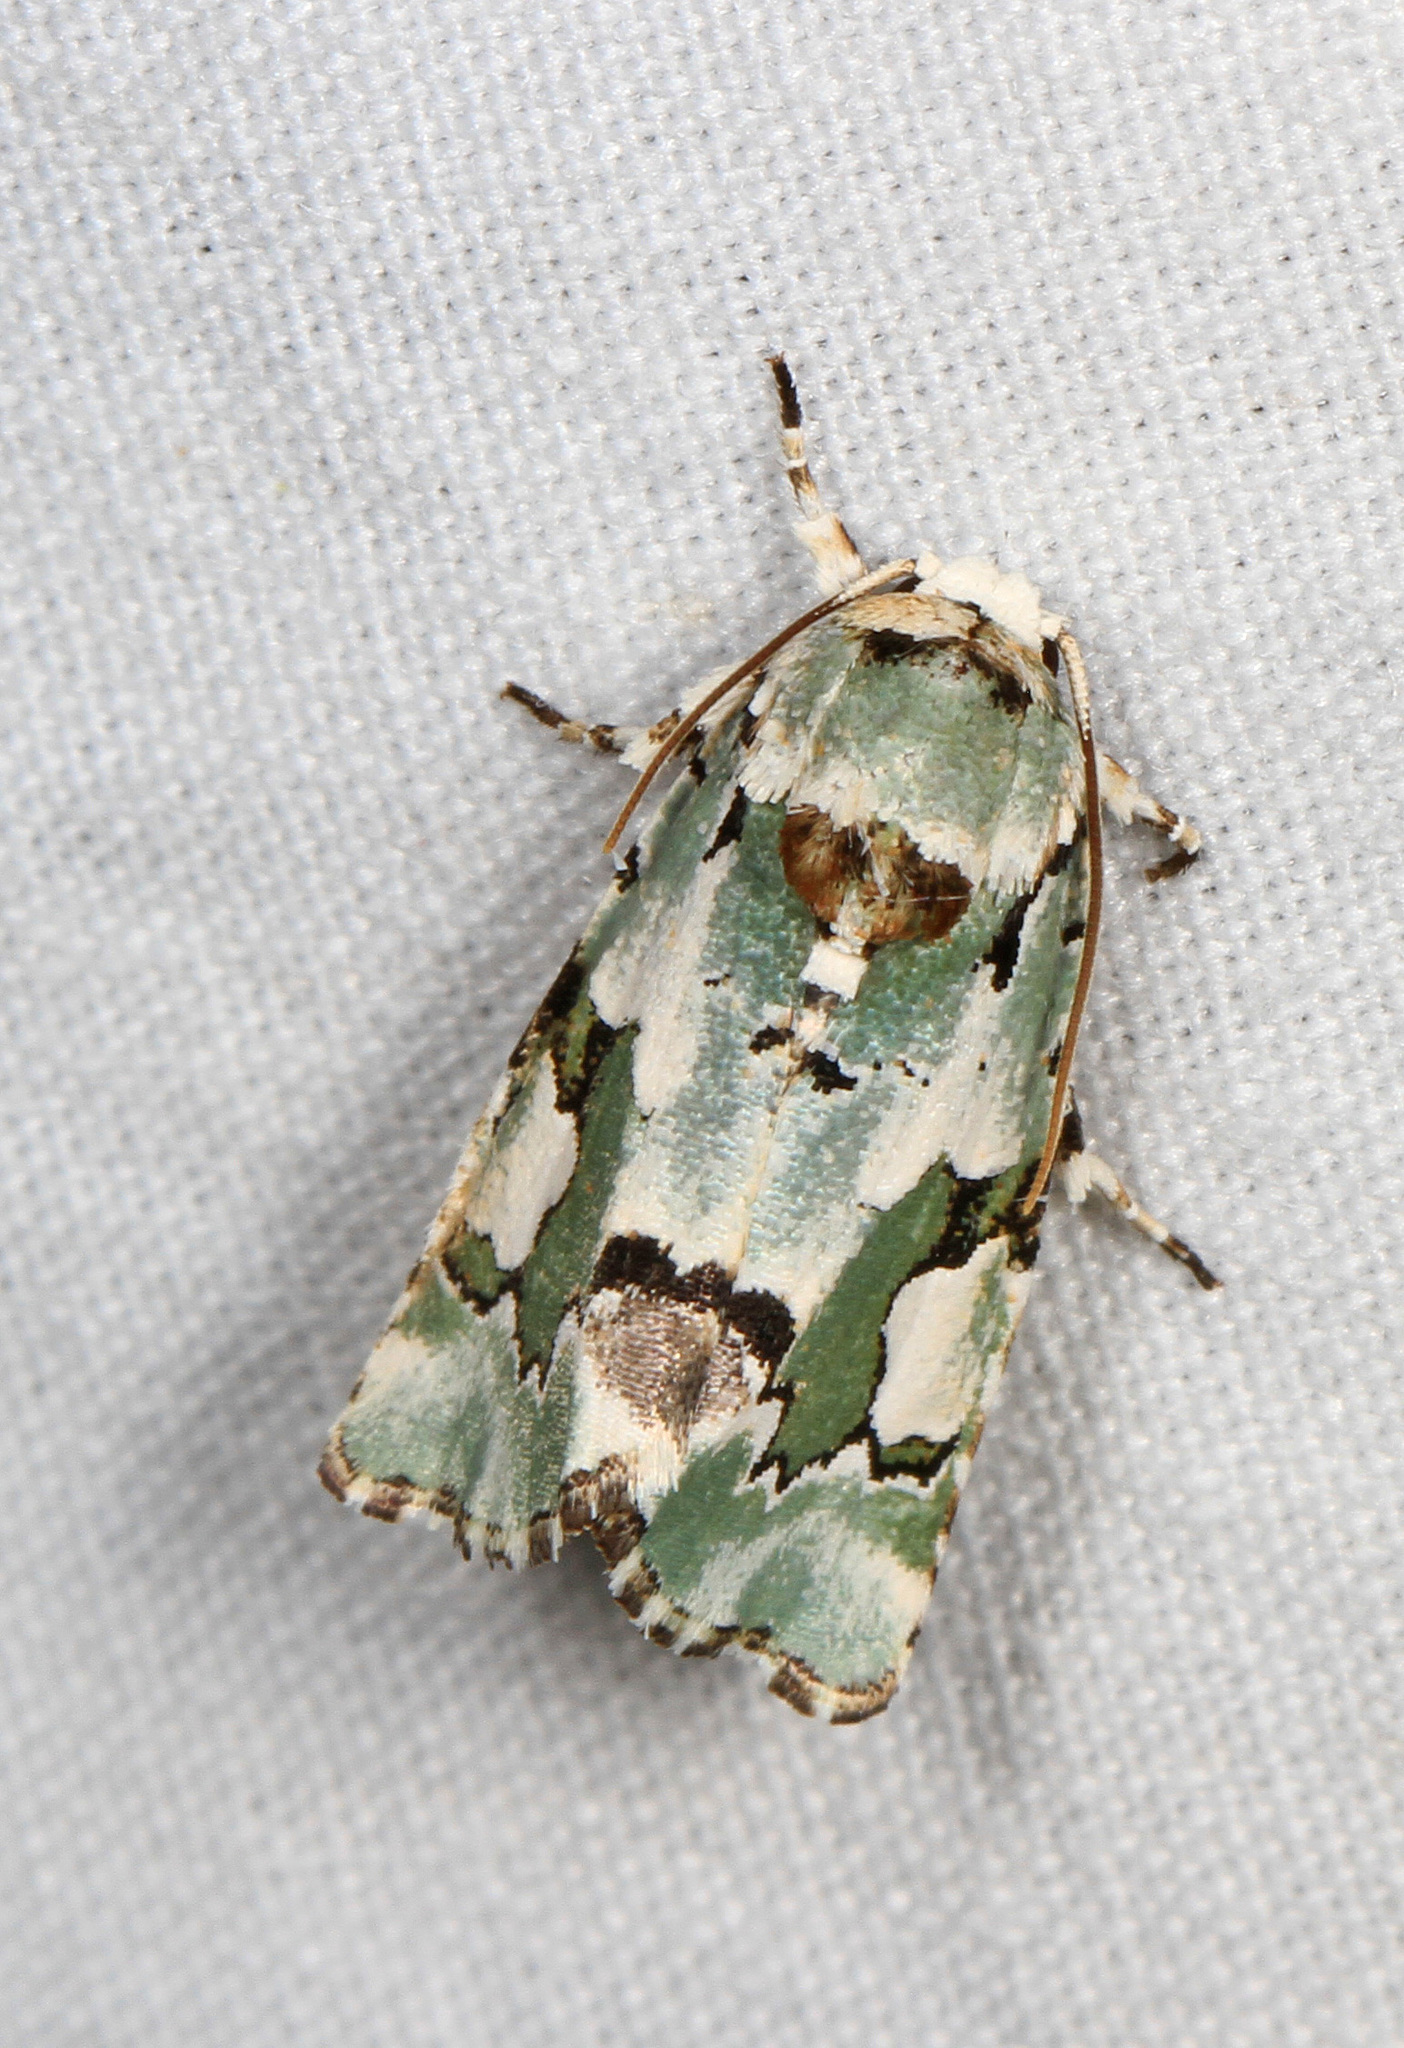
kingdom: Animalia
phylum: Arthropoda
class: Insecta
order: Lepidoptera
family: Noctuidae
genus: Emarginea
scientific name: Emarginea percara
